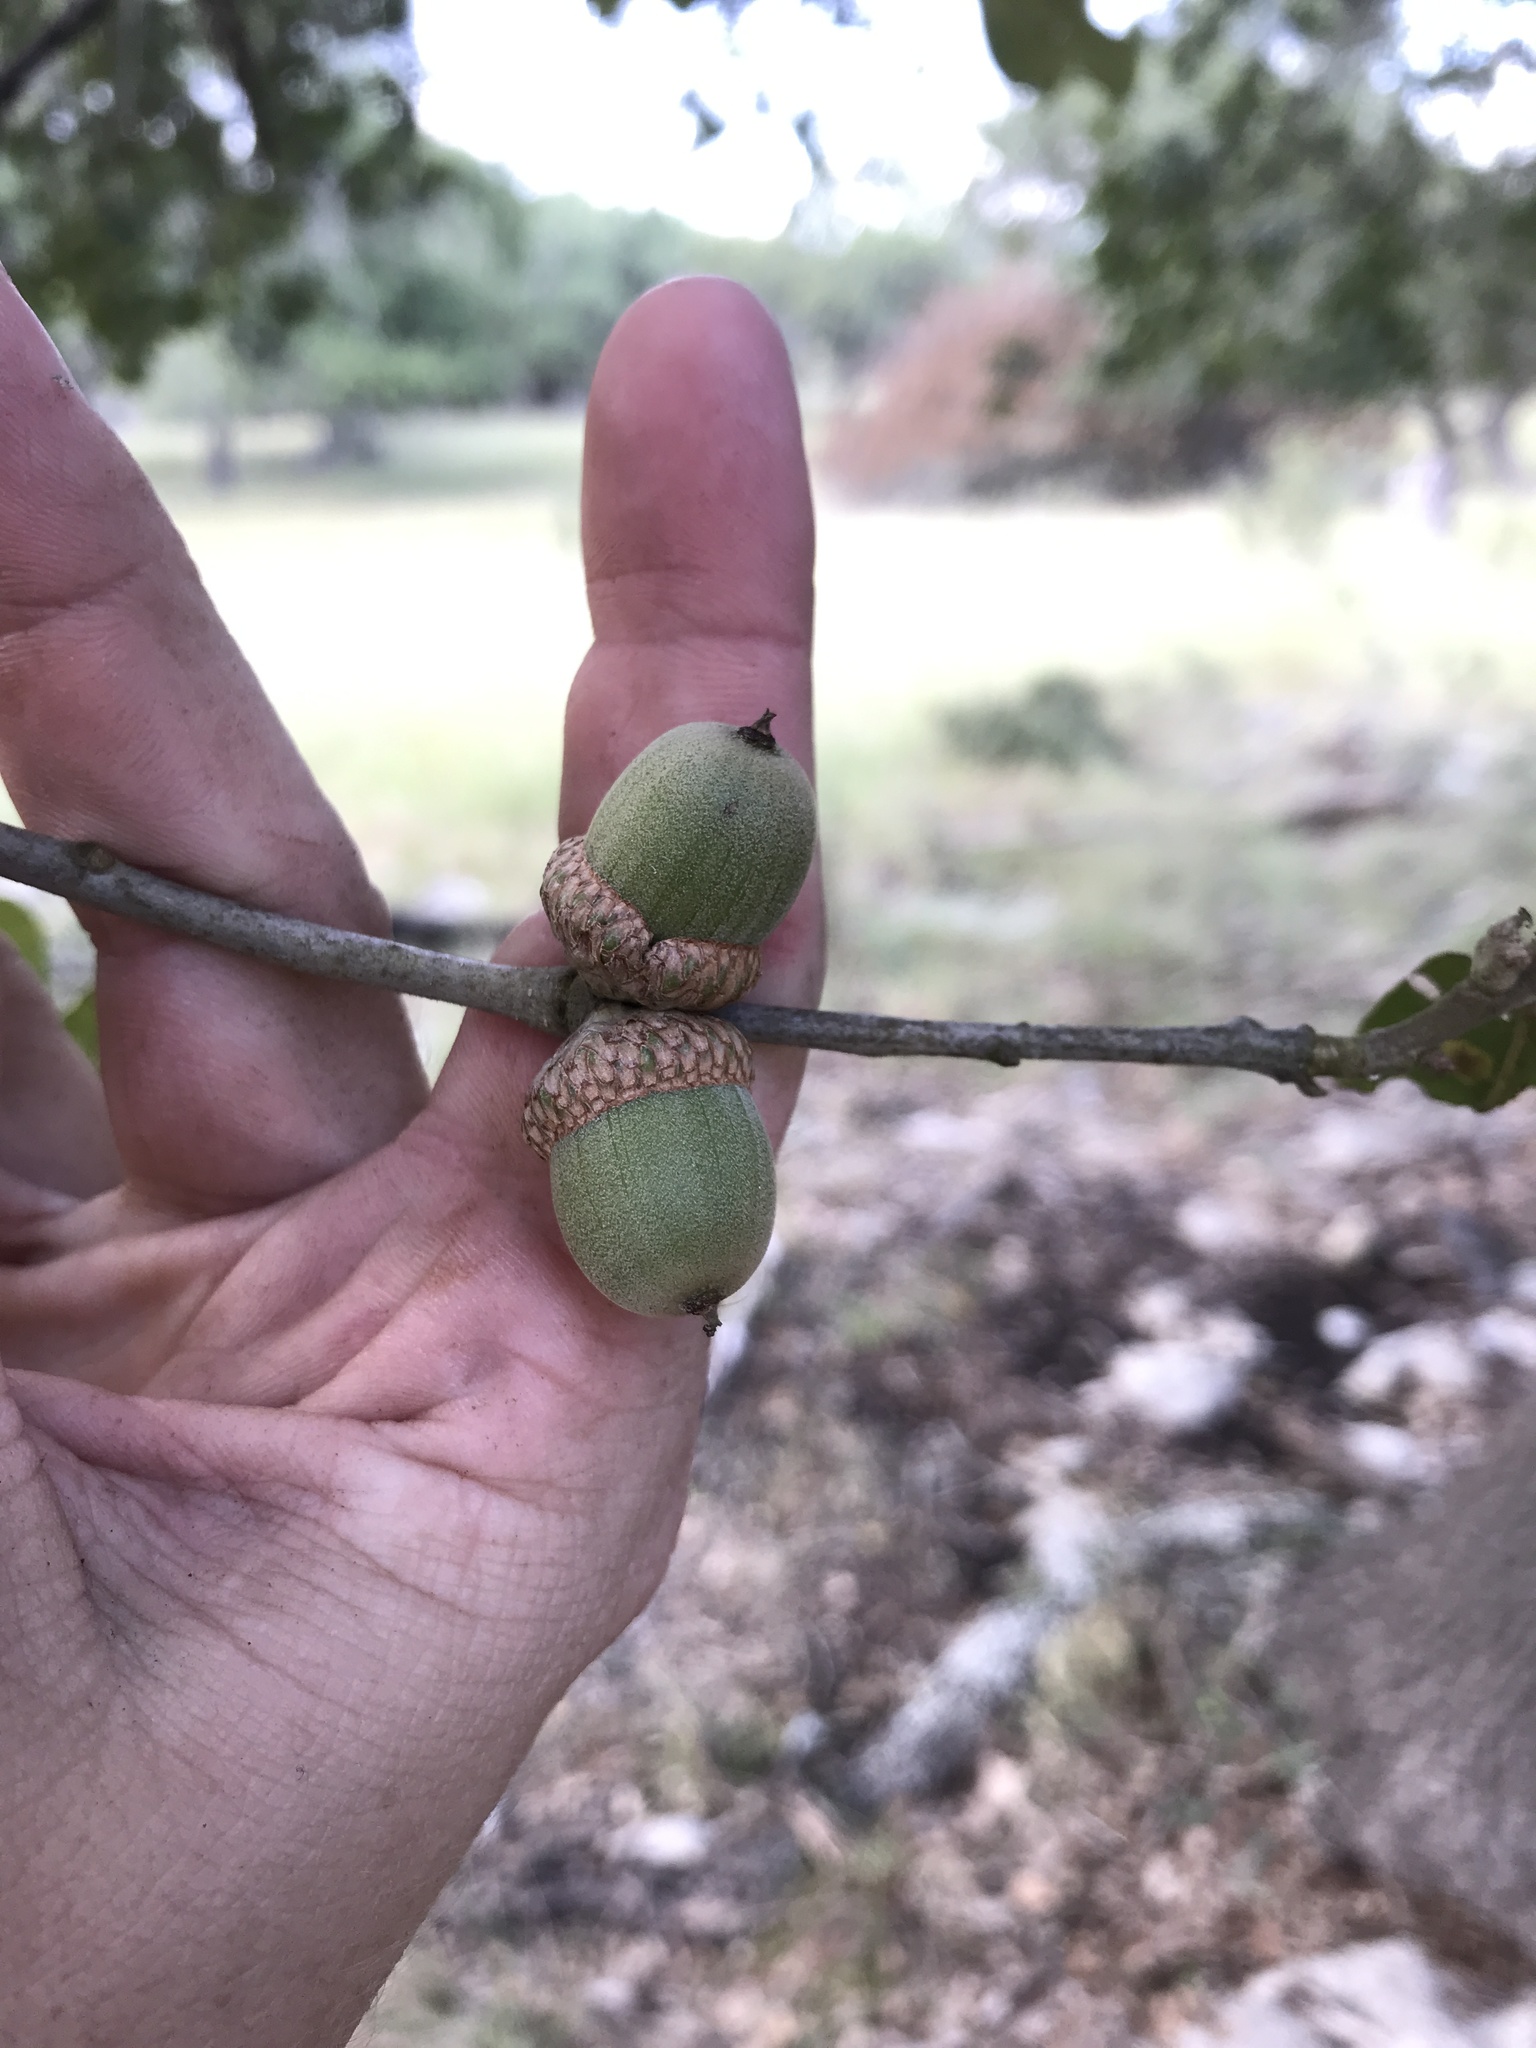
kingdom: Plantae
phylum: Tracheophyta
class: Magnoliopsida
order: Fagales
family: Fagaceae
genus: Quercus
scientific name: Quercus marilandica
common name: Blackjack oak
